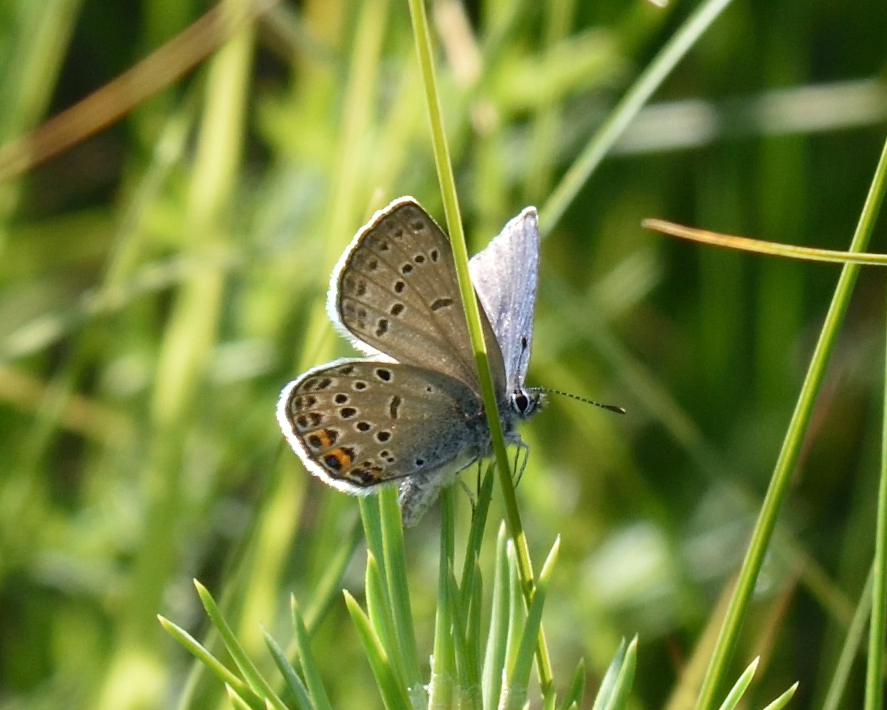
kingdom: Animalia
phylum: Arthropoda
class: Insecta
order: Lepidoptera
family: Lycaenidae
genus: Vacciniina
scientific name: Vacciniina optilete
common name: Cranberry blue
